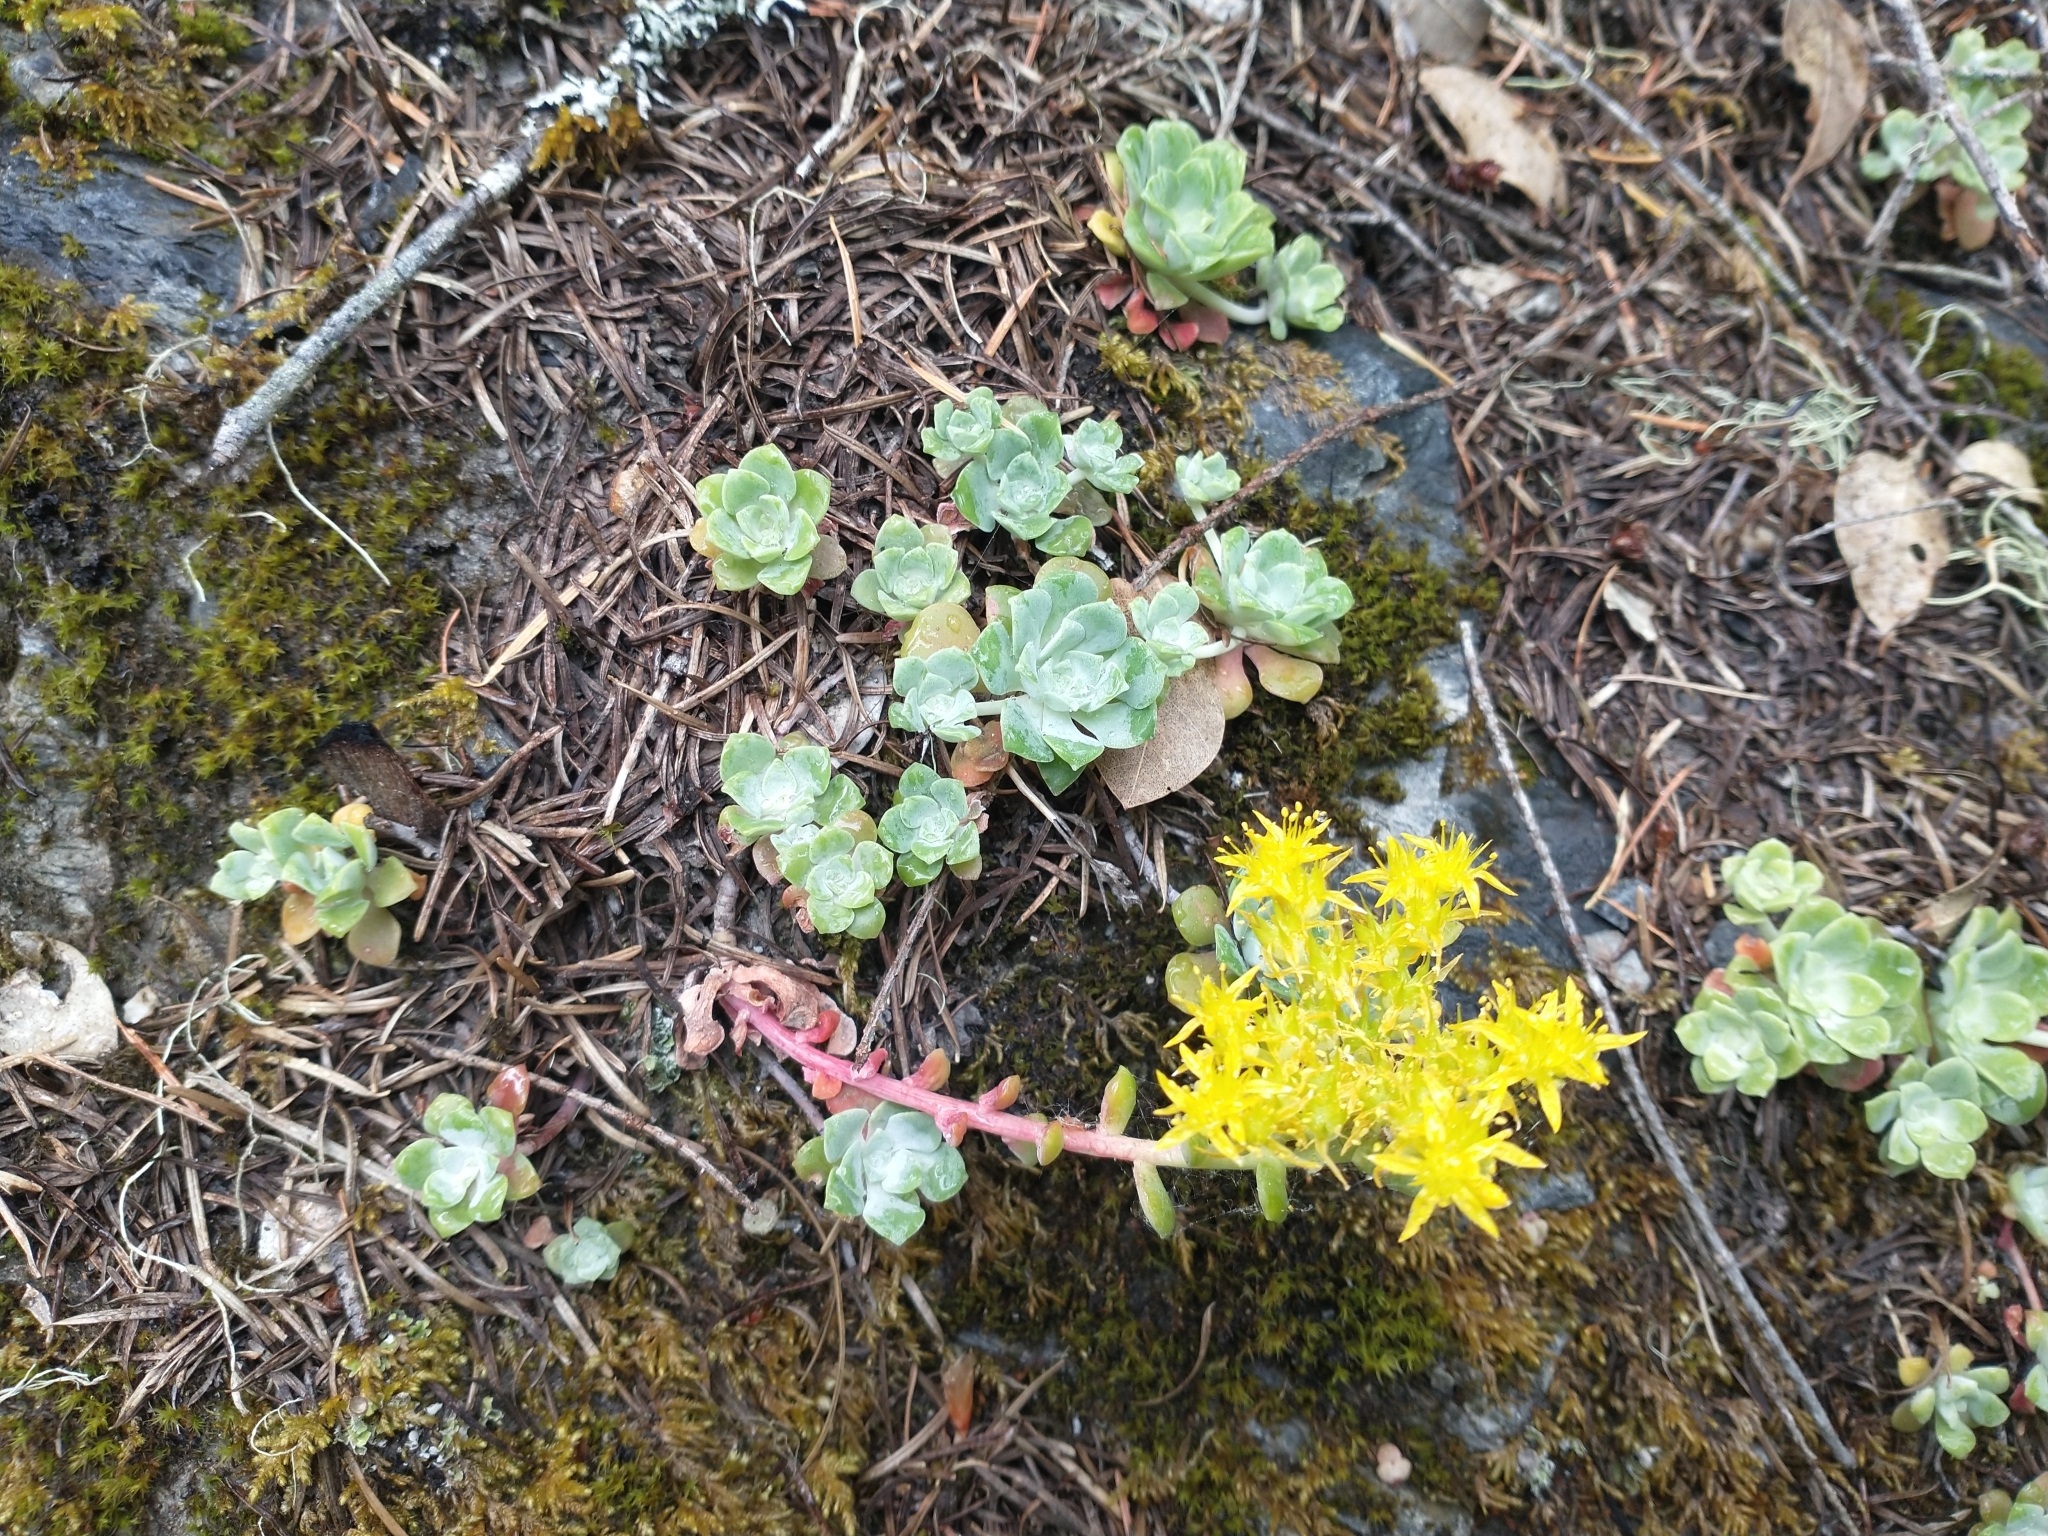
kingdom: Plantae
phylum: Tracheophyta
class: Magnoliopsida
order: Saxifragales
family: Crassulaceae
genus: Sedum
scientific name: Sedum spathulifolium
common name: Colorado stonecrop
